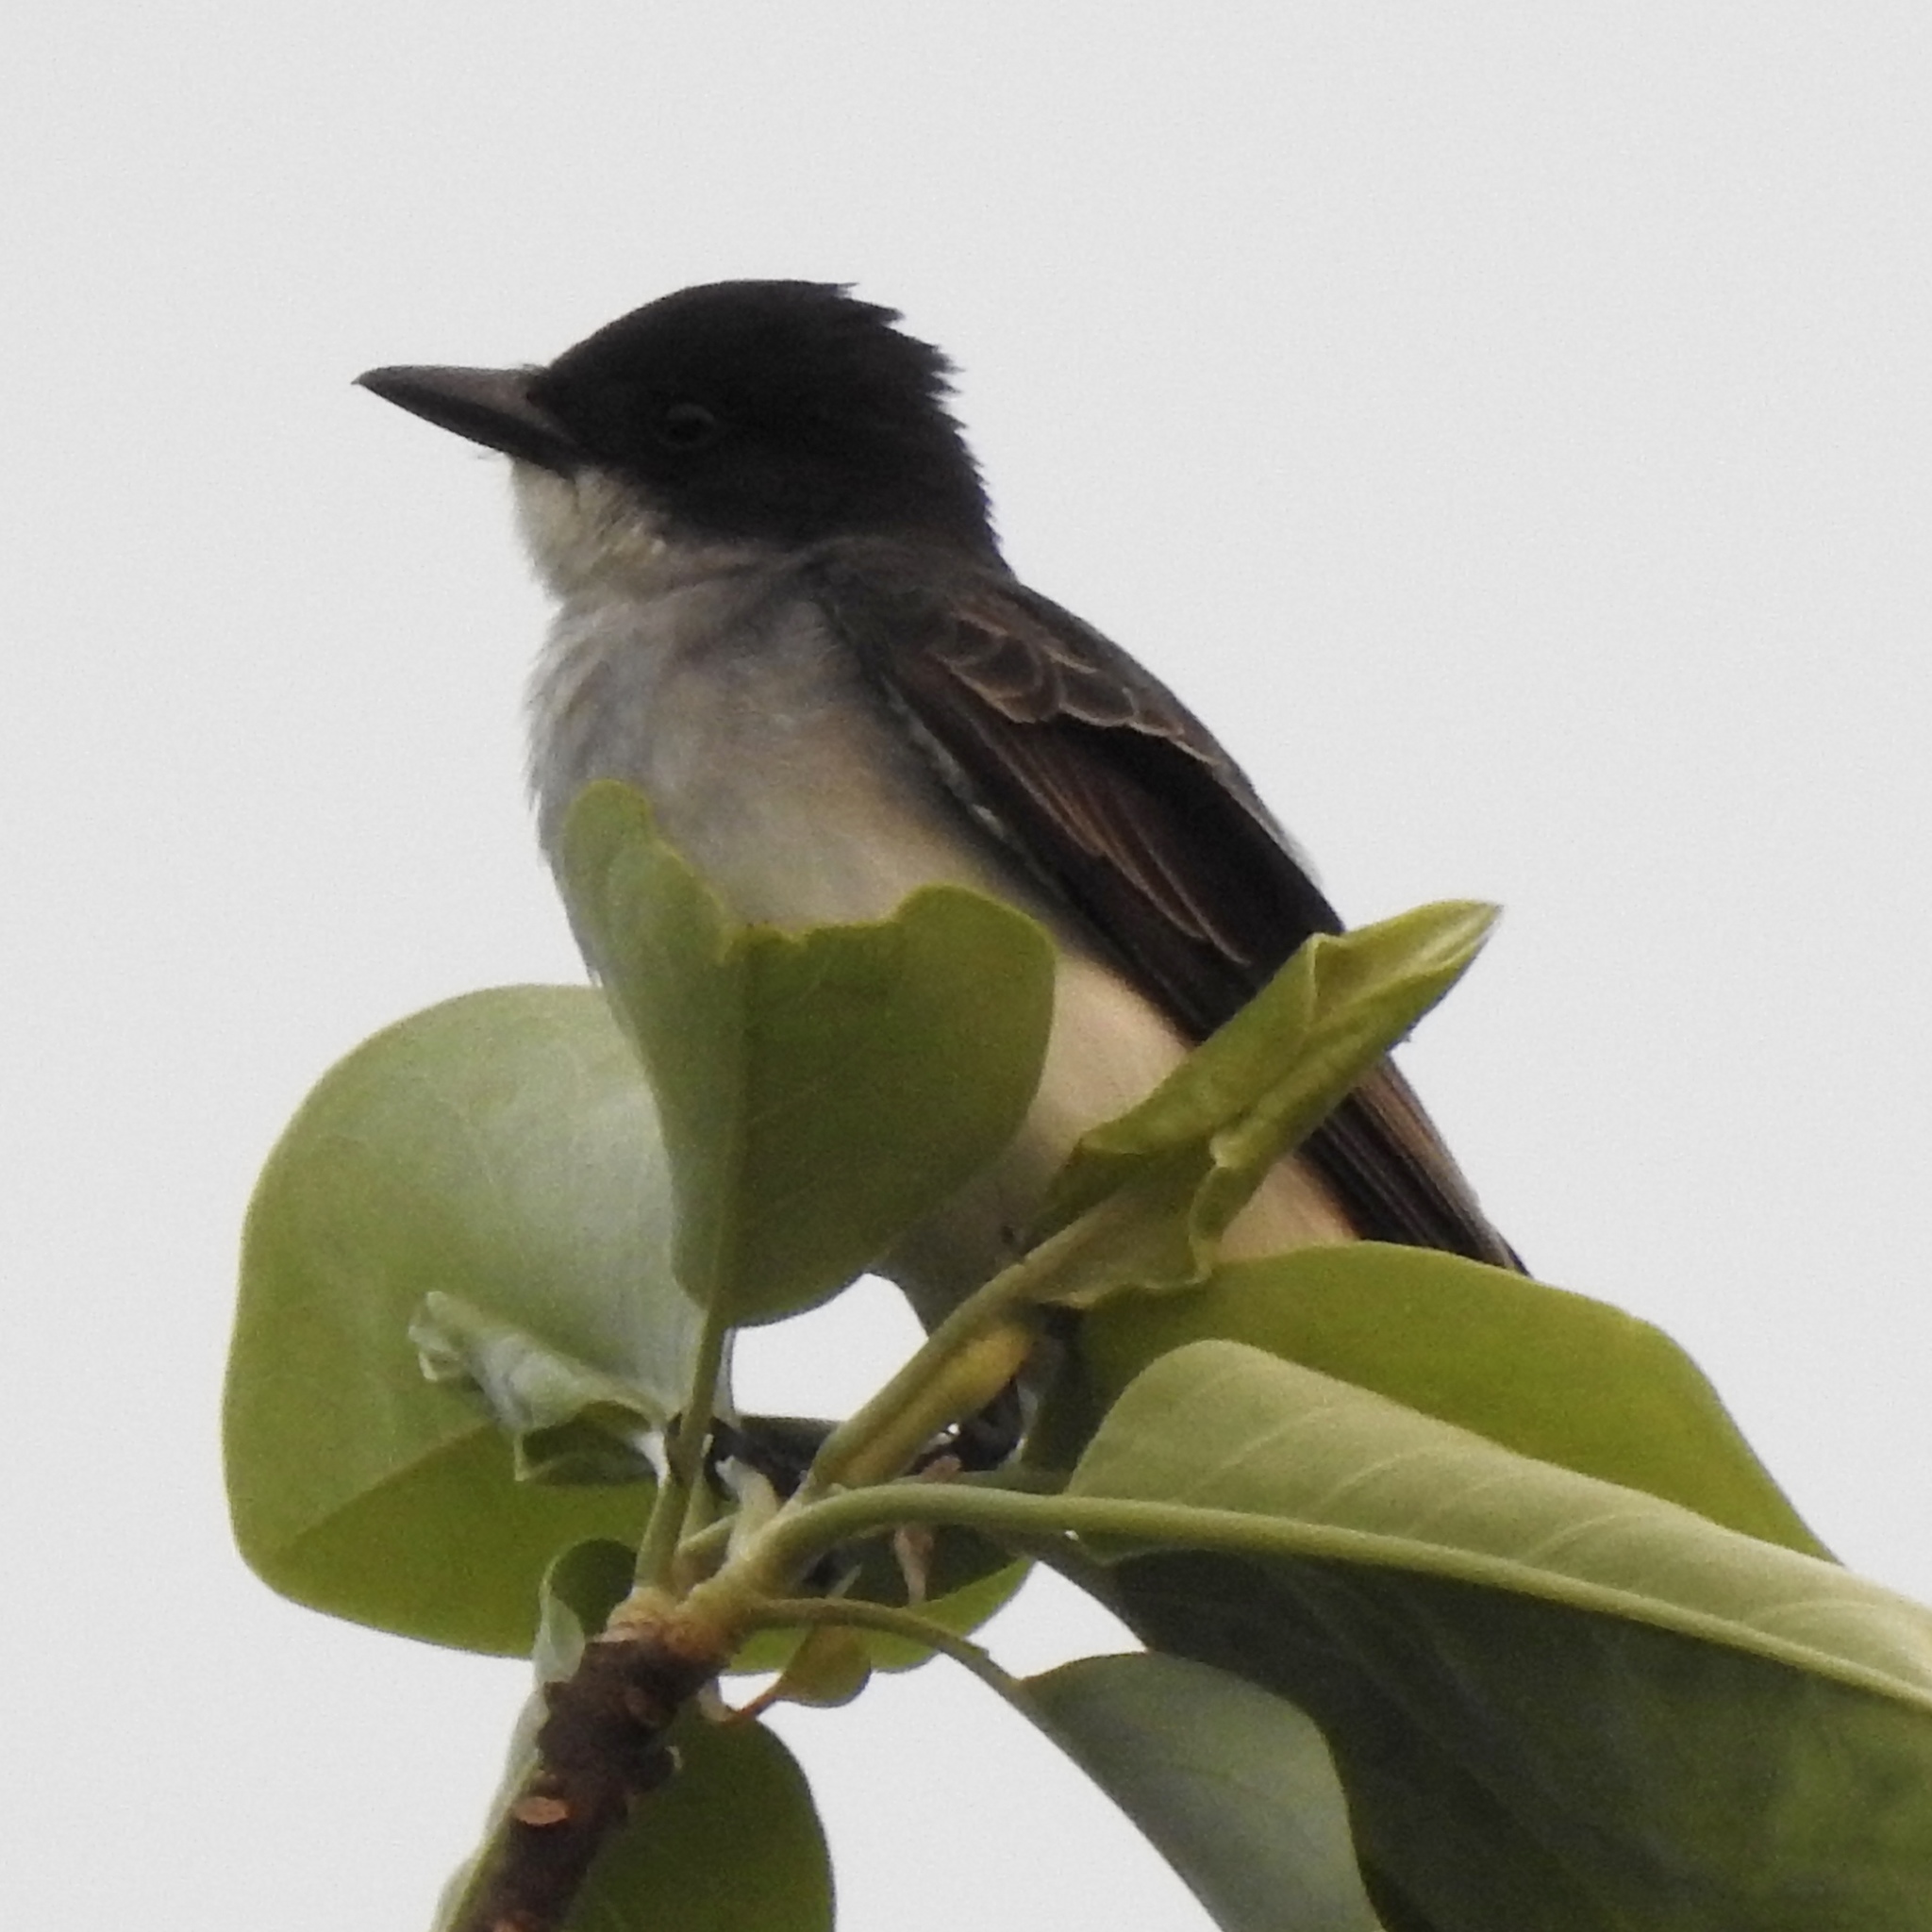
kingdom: Animalia
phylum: Chordata
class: Aves
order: Passeriformes
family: Tyrannidae
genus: Tyrannus
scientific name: Tyrannus tyrannus
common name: Eastern kingbird
